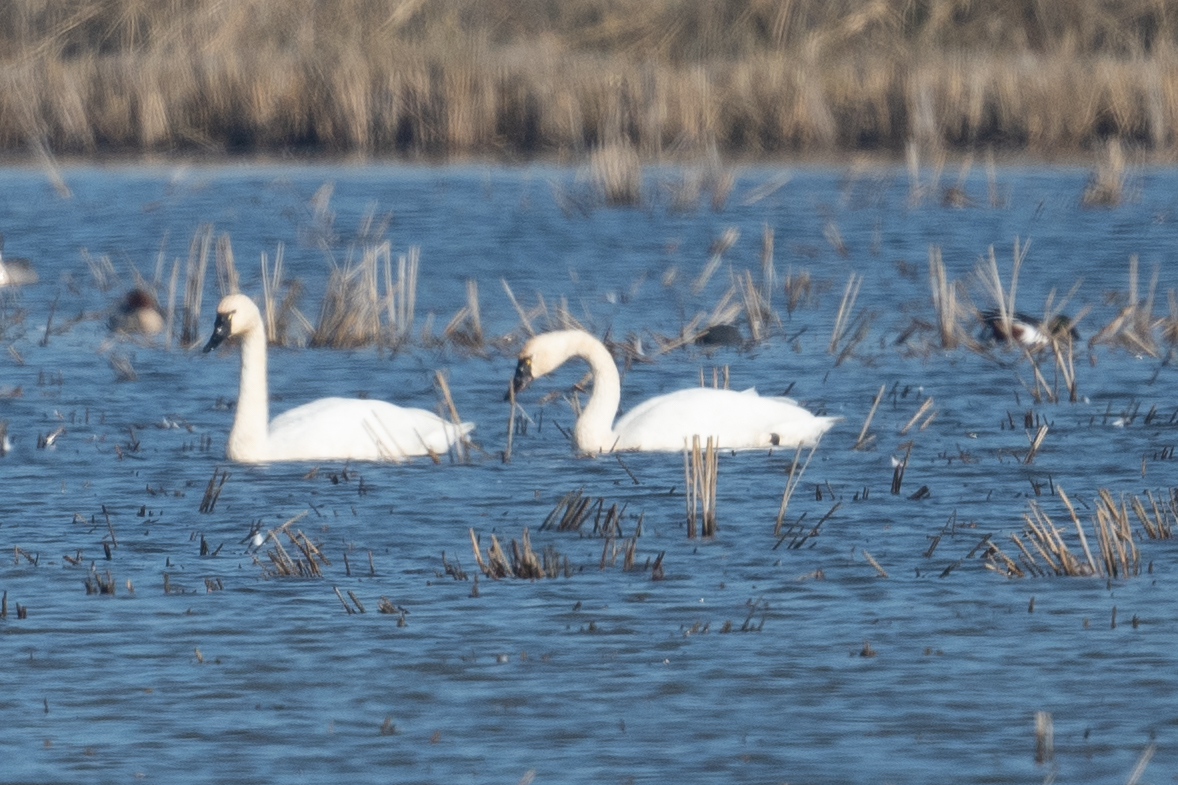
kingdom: Animalia
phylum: Chordata
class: Aves
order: Anseriformes
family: Anatidae
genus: Cygnus
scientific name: Cygnus columbianus
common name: Tundra swan
